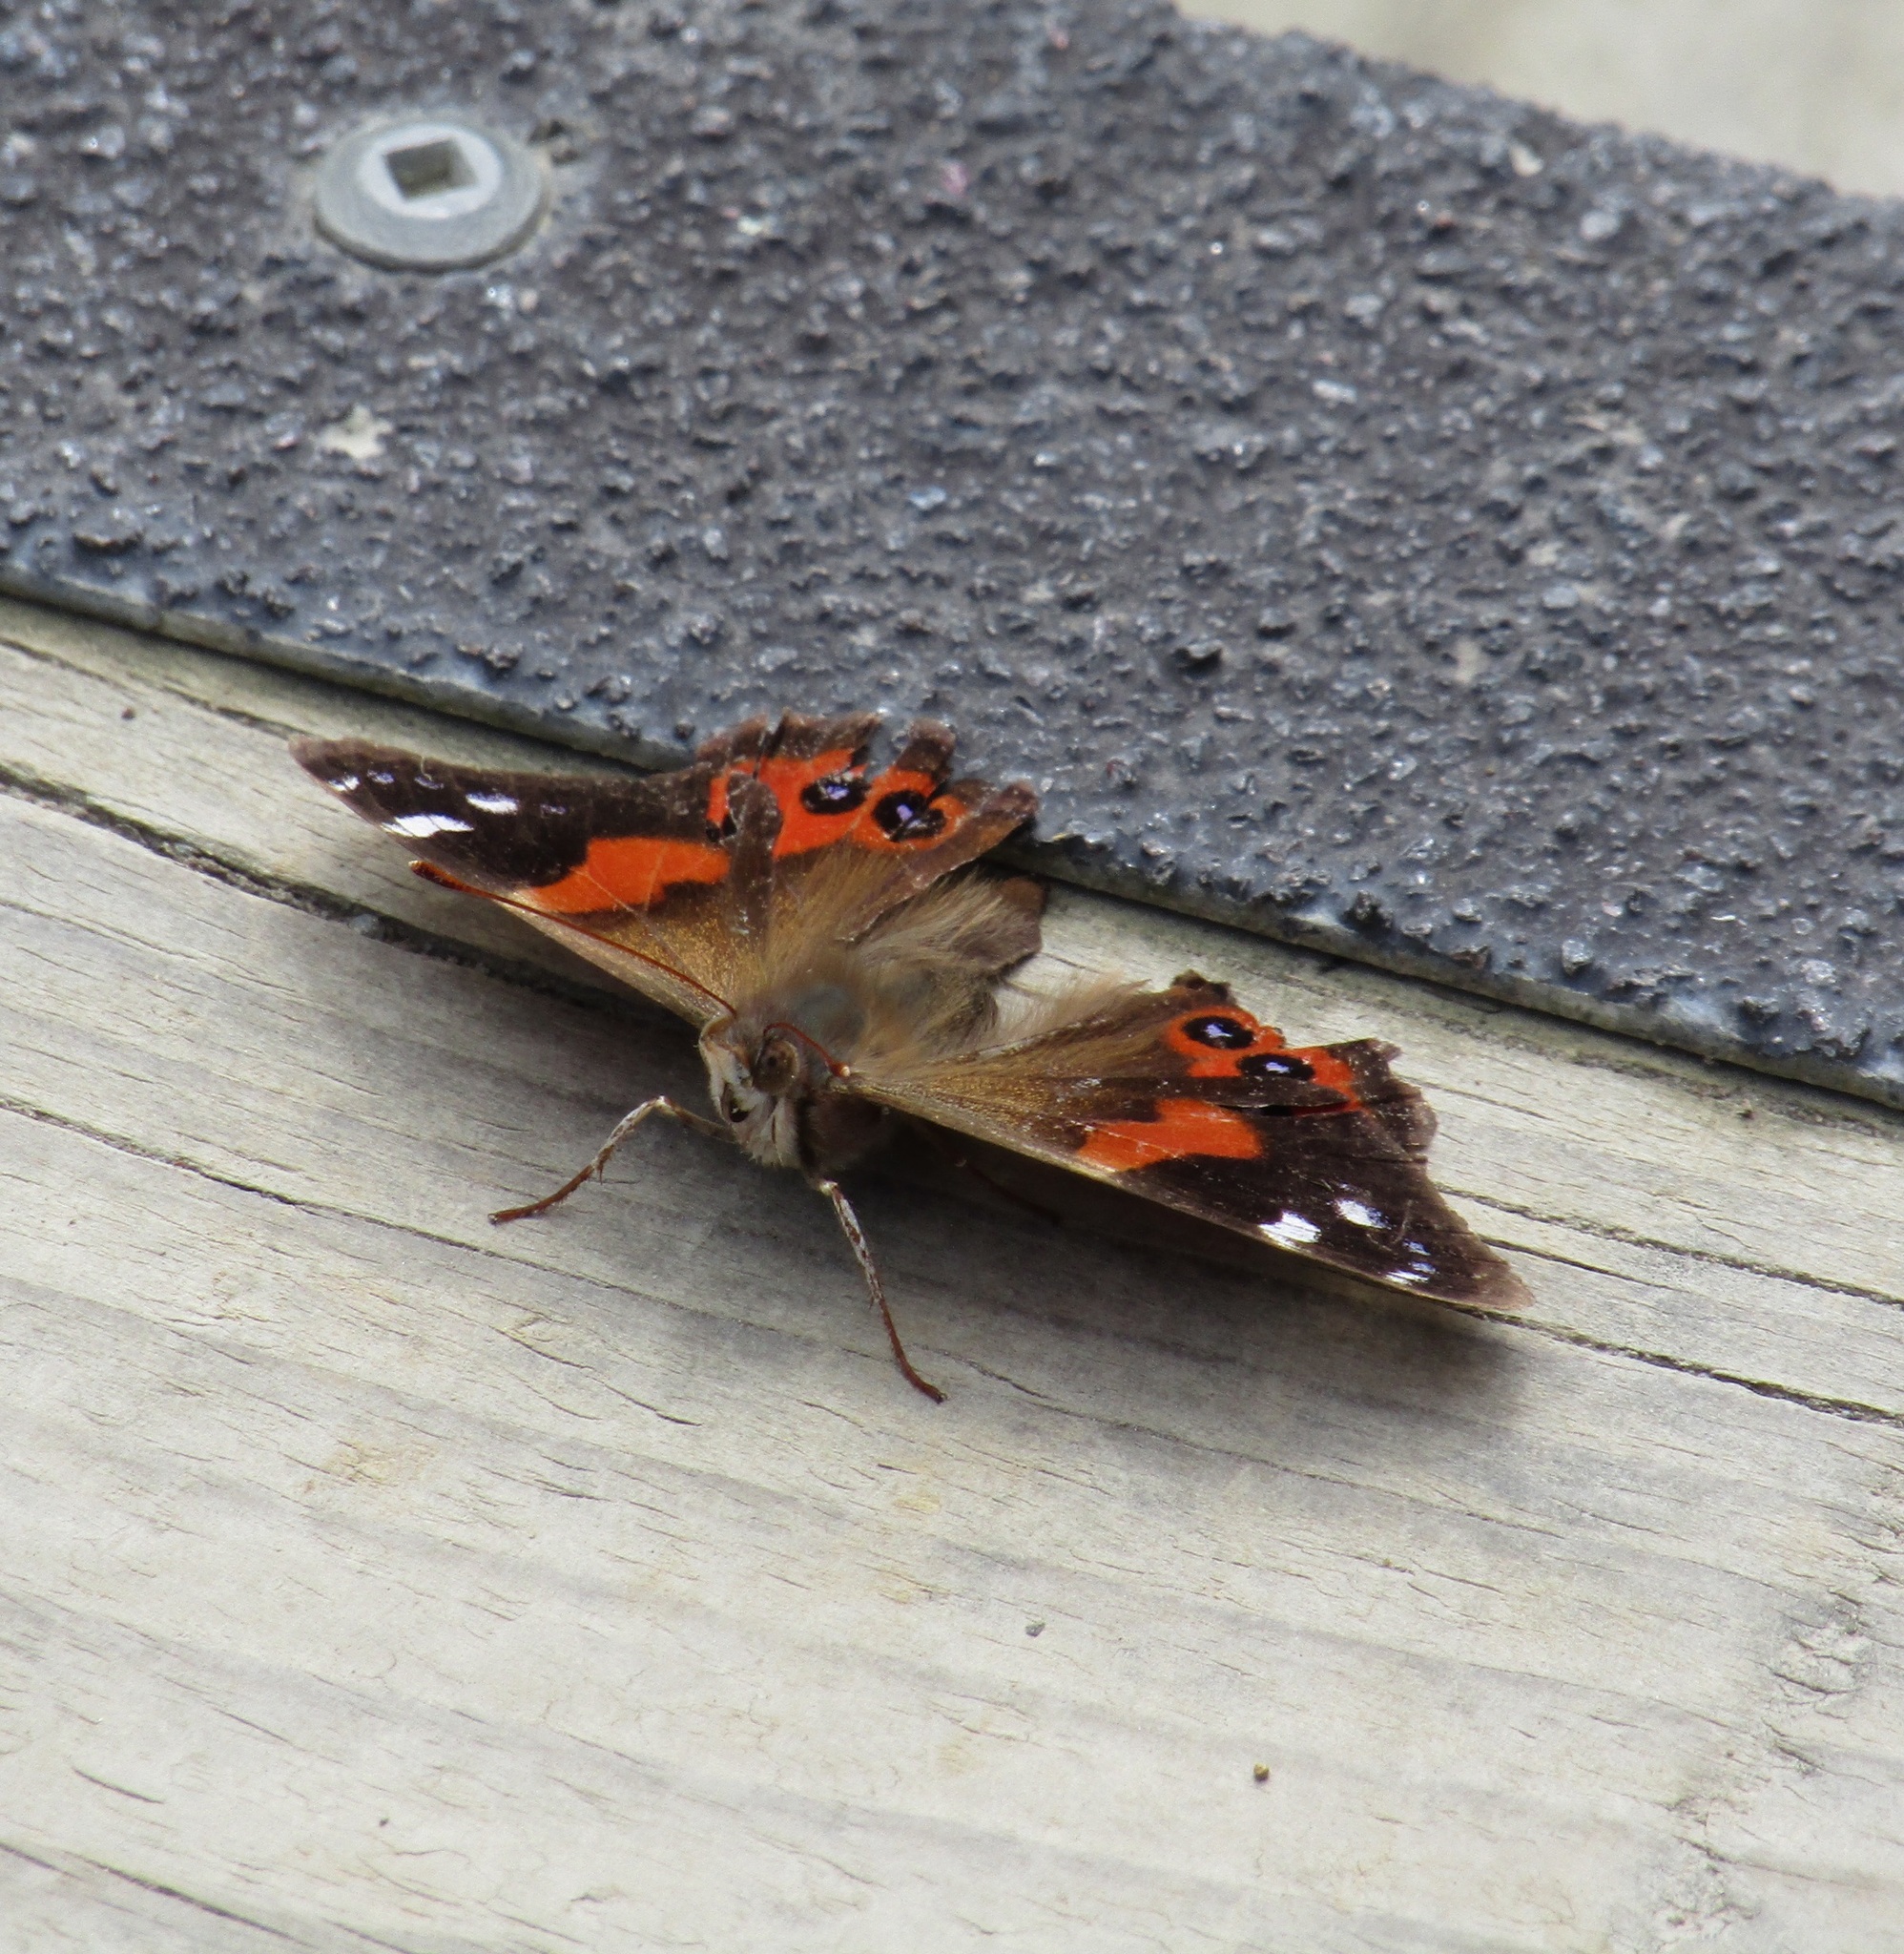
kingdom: Animalia
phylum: Arthropoda
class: Insecta
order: Lepidoptera
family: Nymphalidae
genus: Vanessa
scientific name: Vanessa gonerilla
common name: New zealand red admiral
